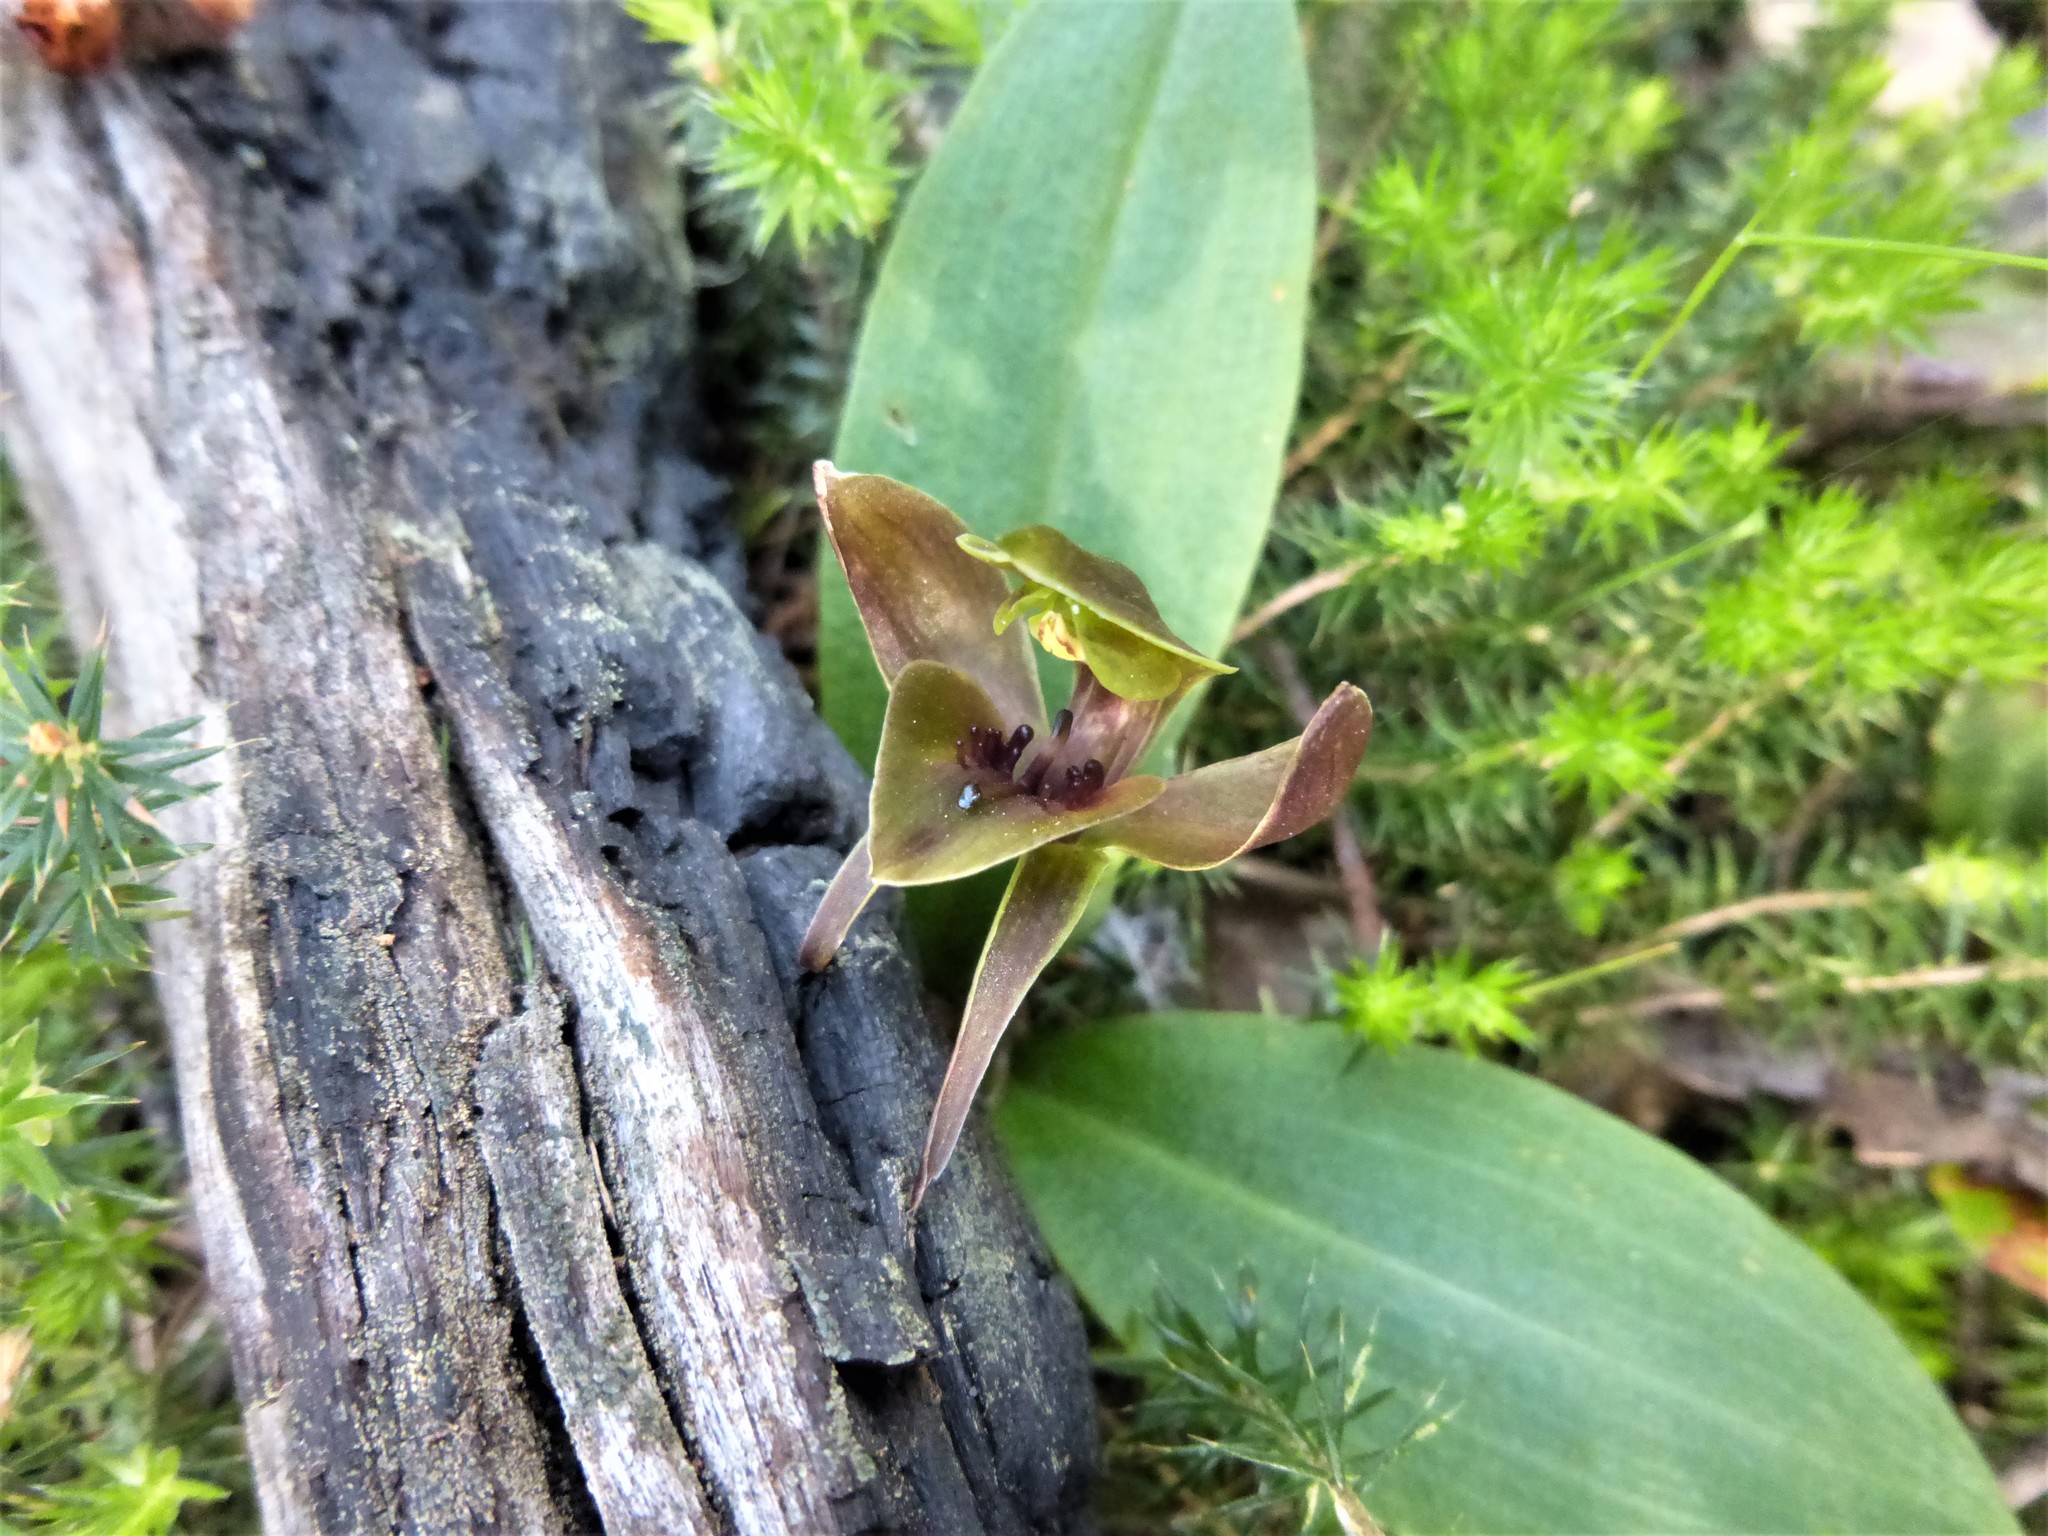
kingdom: Plantae
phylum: Tracheophyta
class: Liliopsida
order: Asparagales
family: Orchidaceae
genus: Chiloglottis
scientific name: Chiloglottis valida
